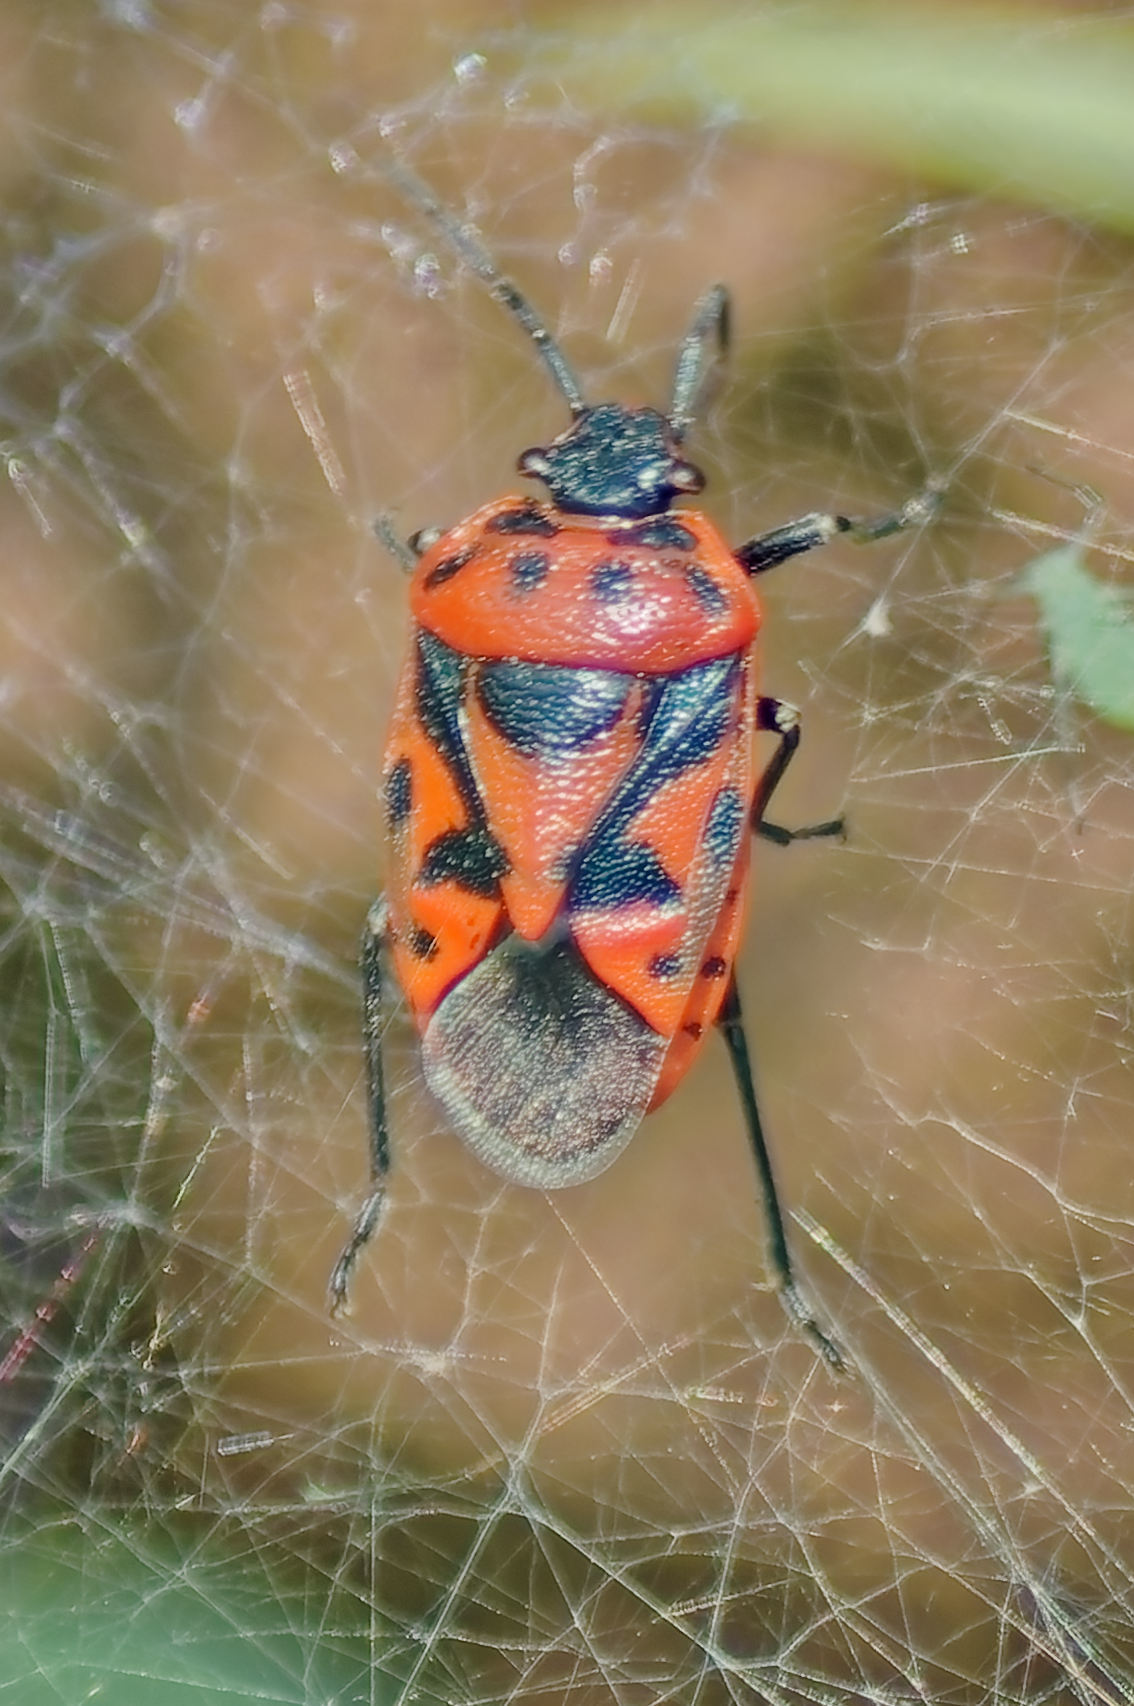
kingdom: Animalia
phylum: Arthropoda
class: Insecta
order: Hemiptera
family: Pentatomidae
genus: Eurydema
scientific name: Eurydema ornata
